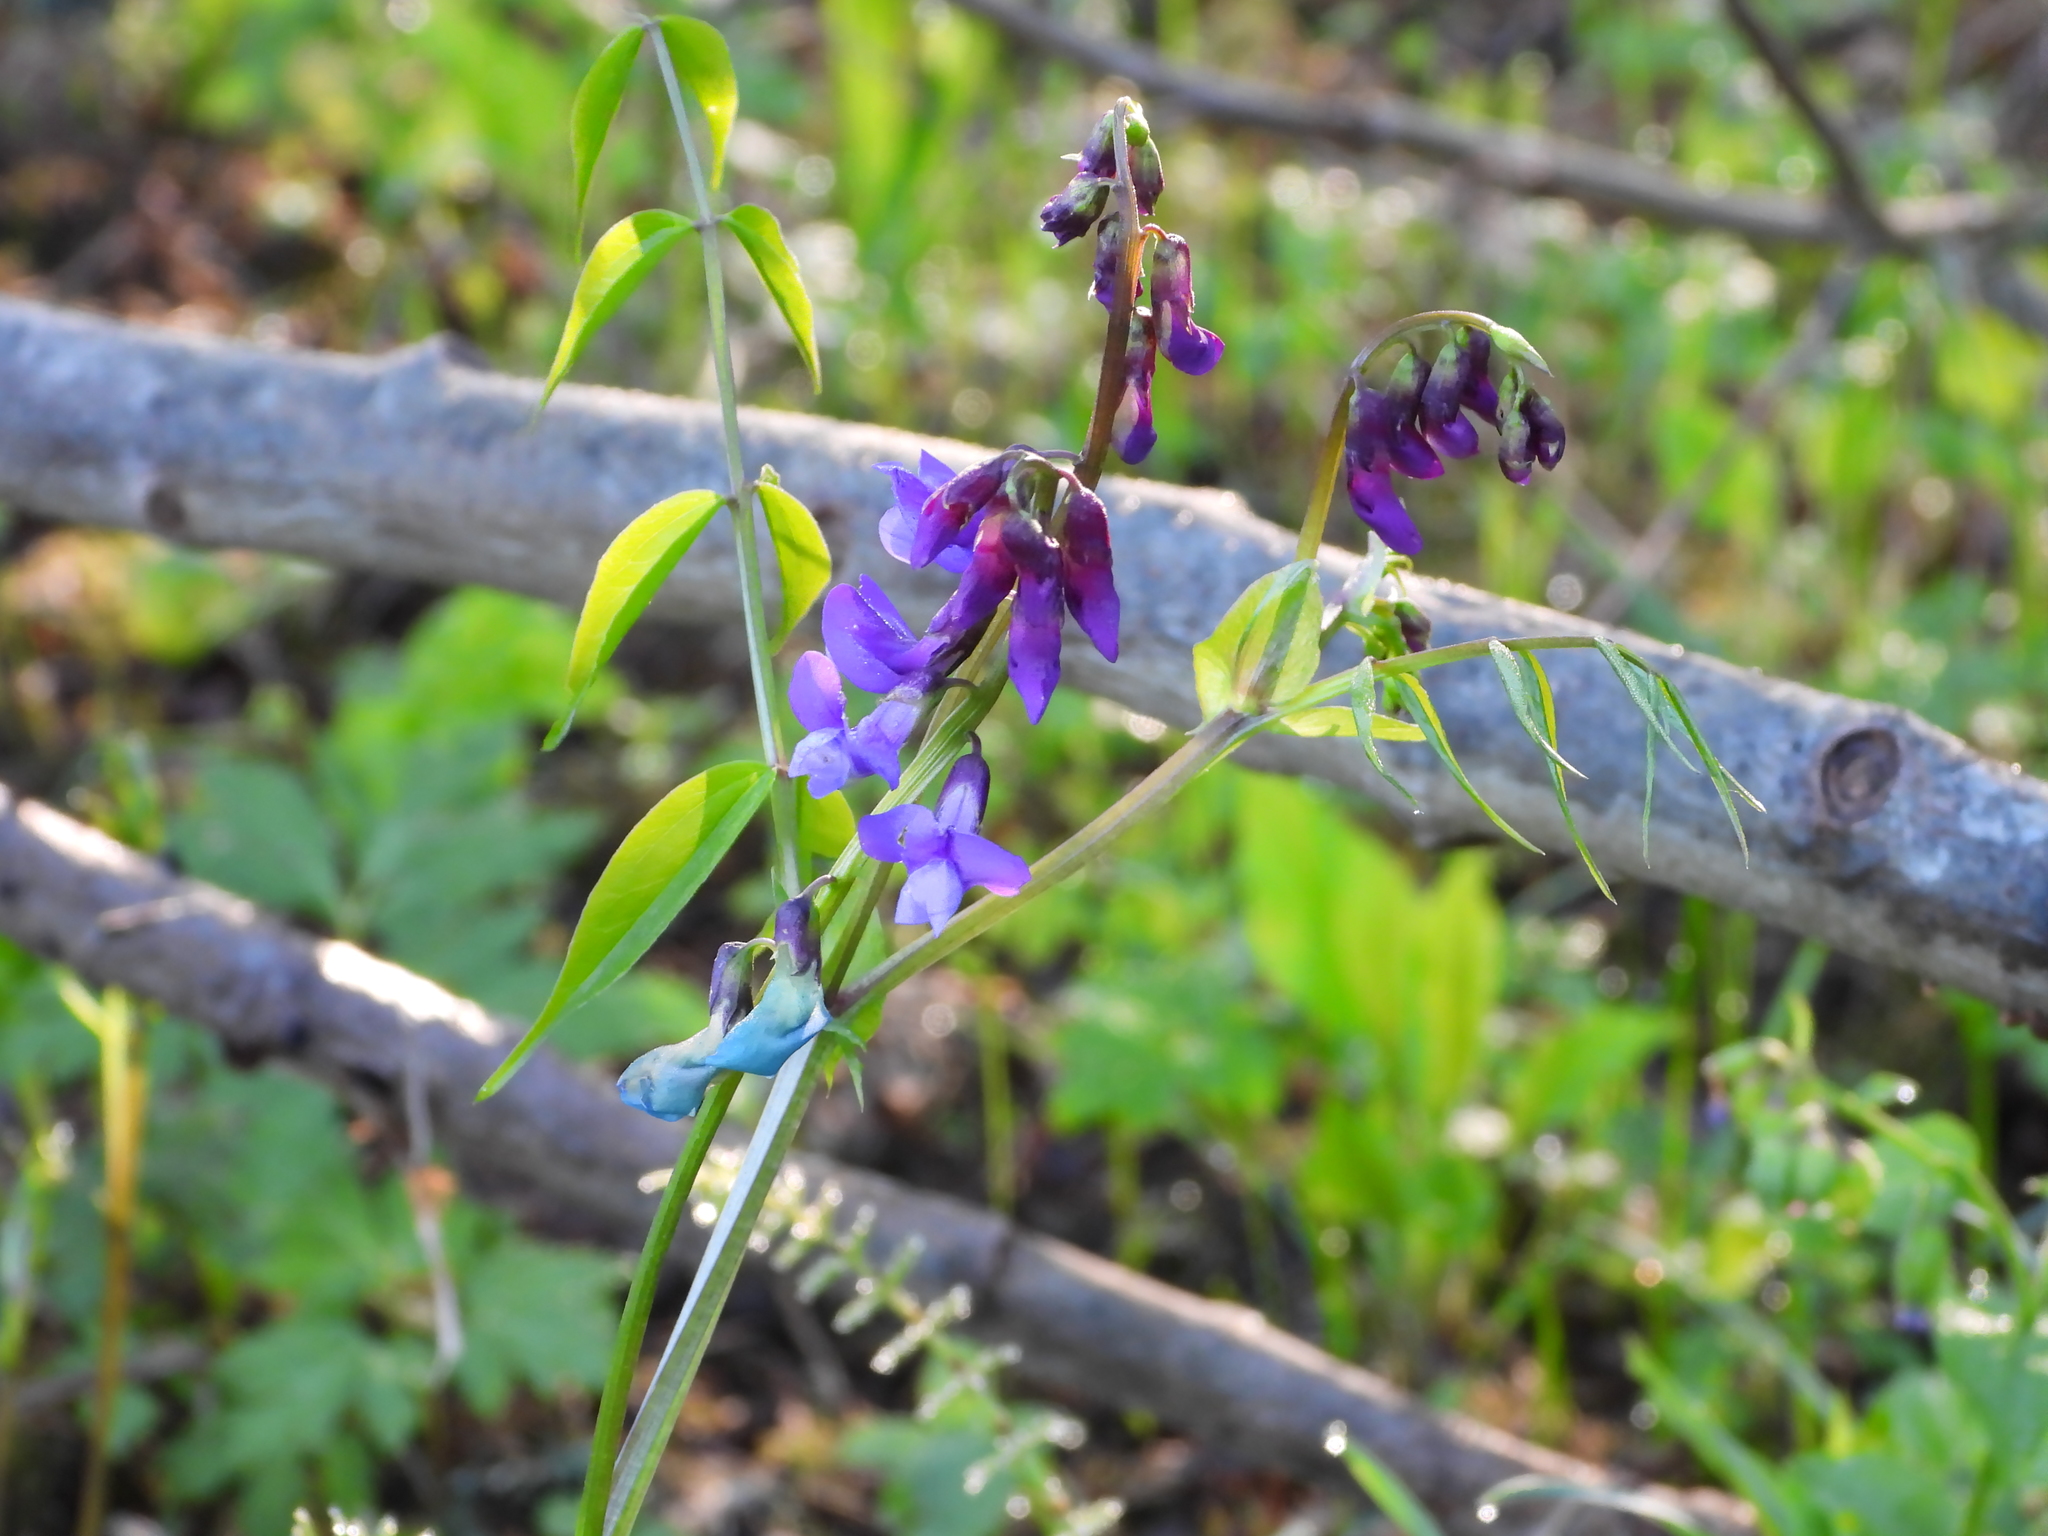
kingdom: Plantae
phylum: Tracheophyta
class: Magnoliopsida
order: Fabales
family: Fabaceae
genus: Lathyrus
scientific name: Lathyrus vernus
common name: Spring pea
